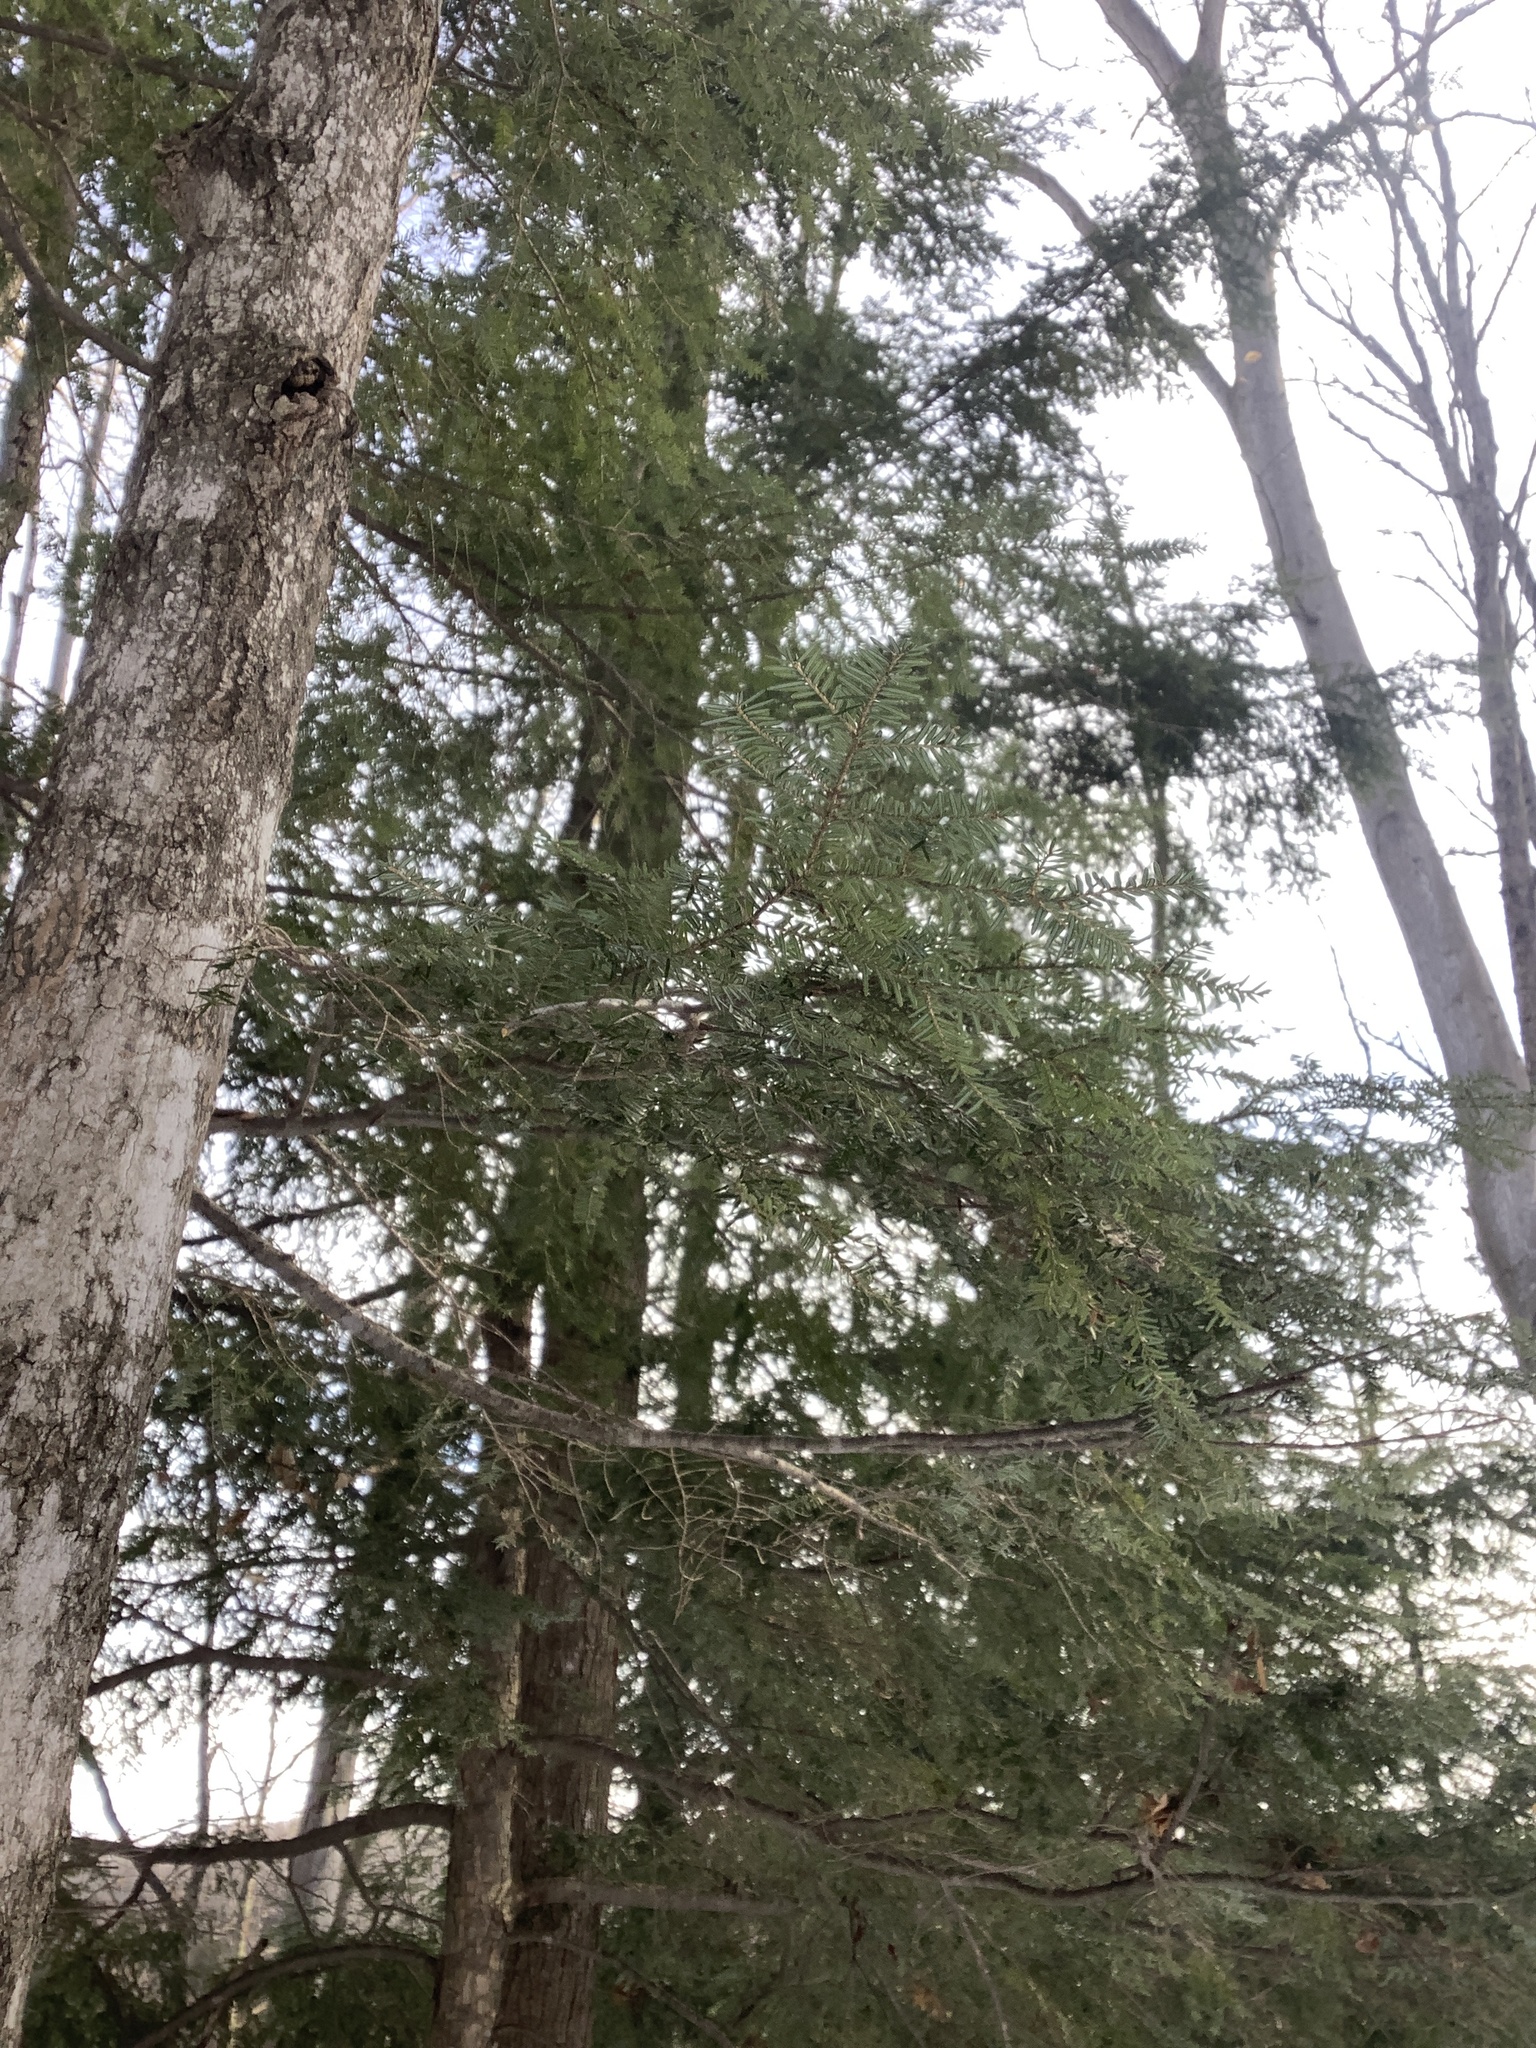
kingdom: Plantae
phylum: Tracheophyta
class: Pinopsida
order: Pinales
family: Pinaceae
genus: Tsuga
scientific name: Tsuga canadensis
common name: Eastern hemlock
